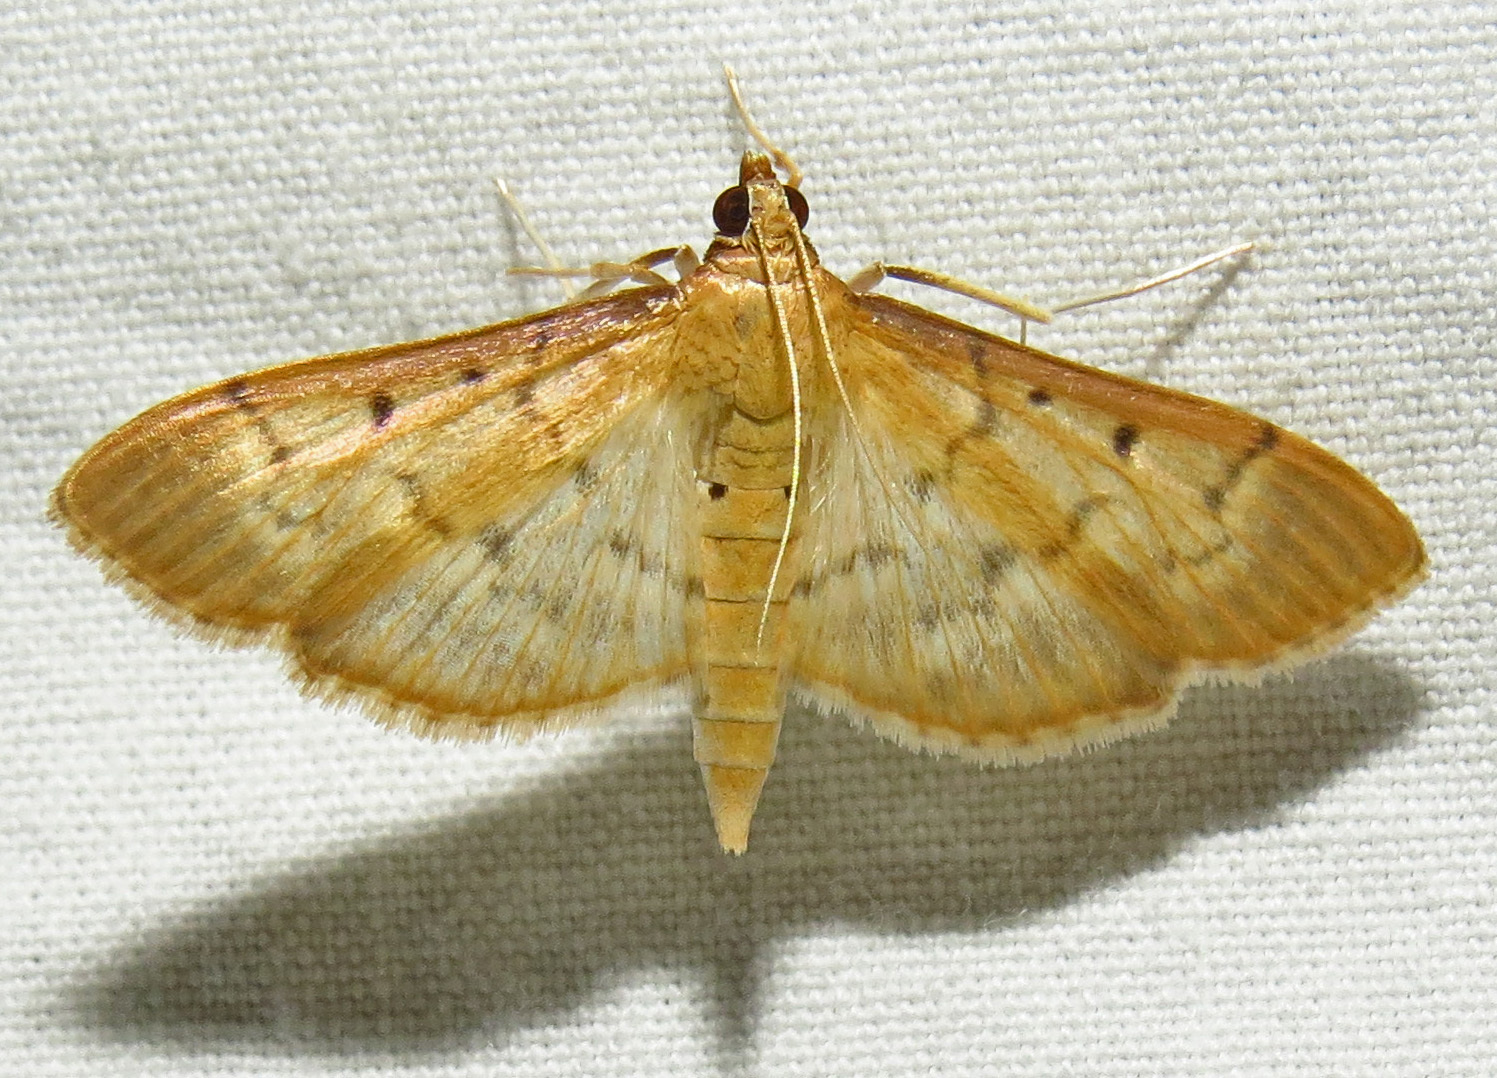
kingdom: Animalia
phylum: Arthropoda
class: Insecta
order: Lepidoptera
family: Crambidae
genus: Herpetogramma
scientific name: Herpetogramma bipunctalis
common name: Southern beet webworm
